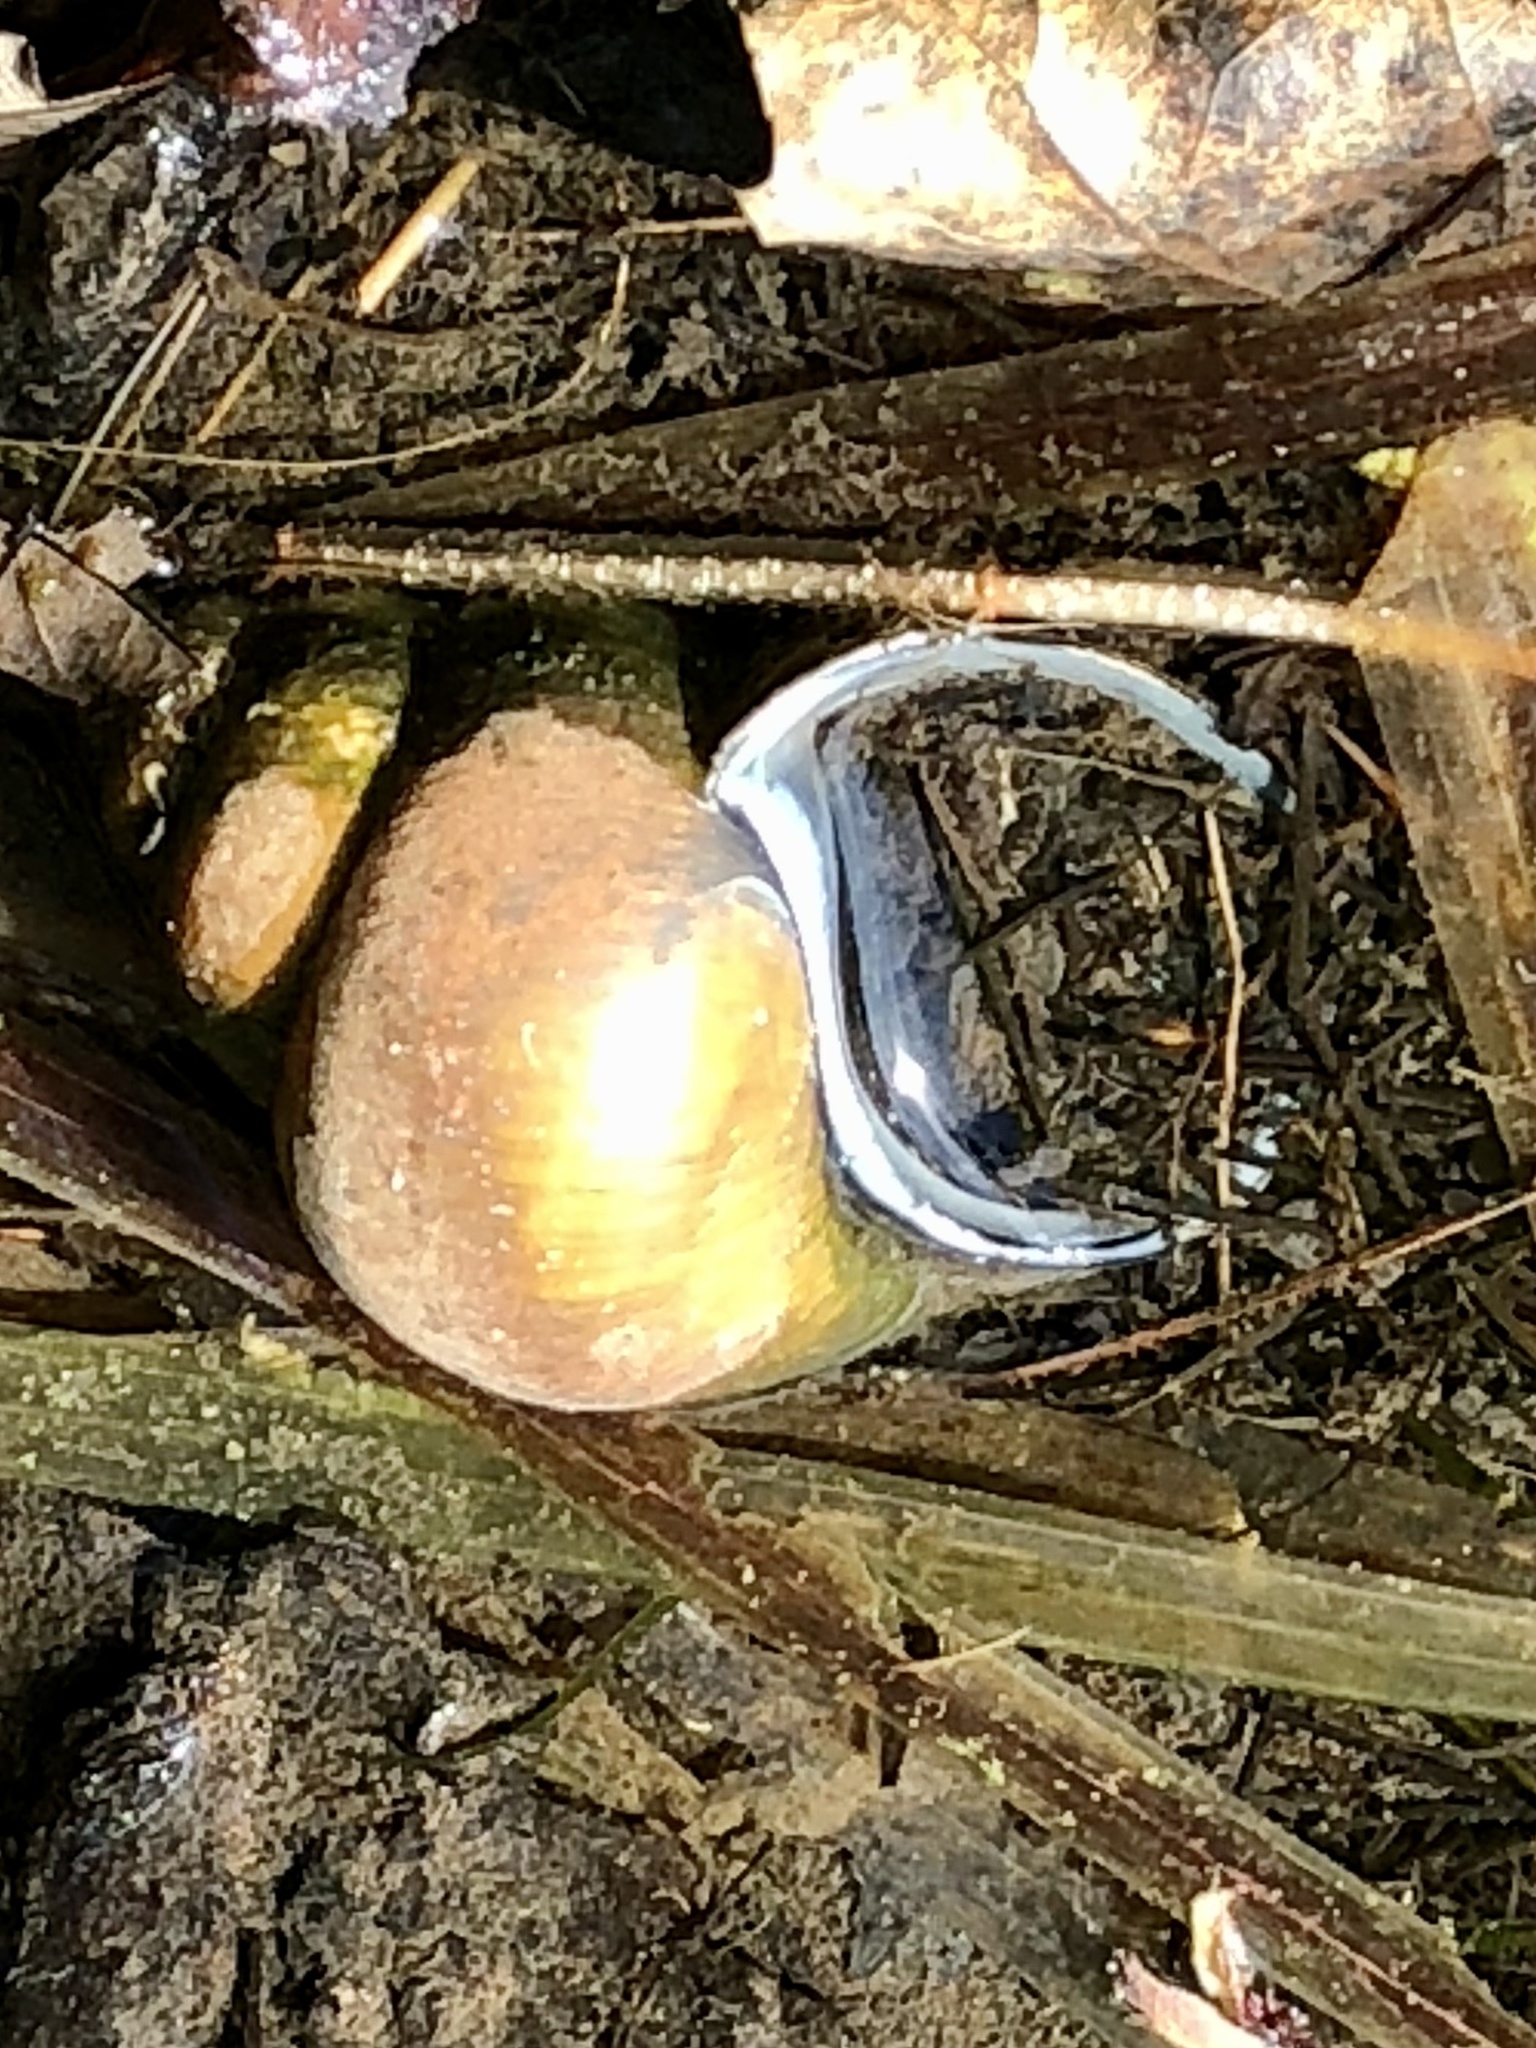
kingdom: Animalia
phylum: Mollusca
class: Gastropoda
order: Architaenioglossa
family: Viviparidae
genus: Cipangopaludina
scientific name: Cipangopaludina chinensis
